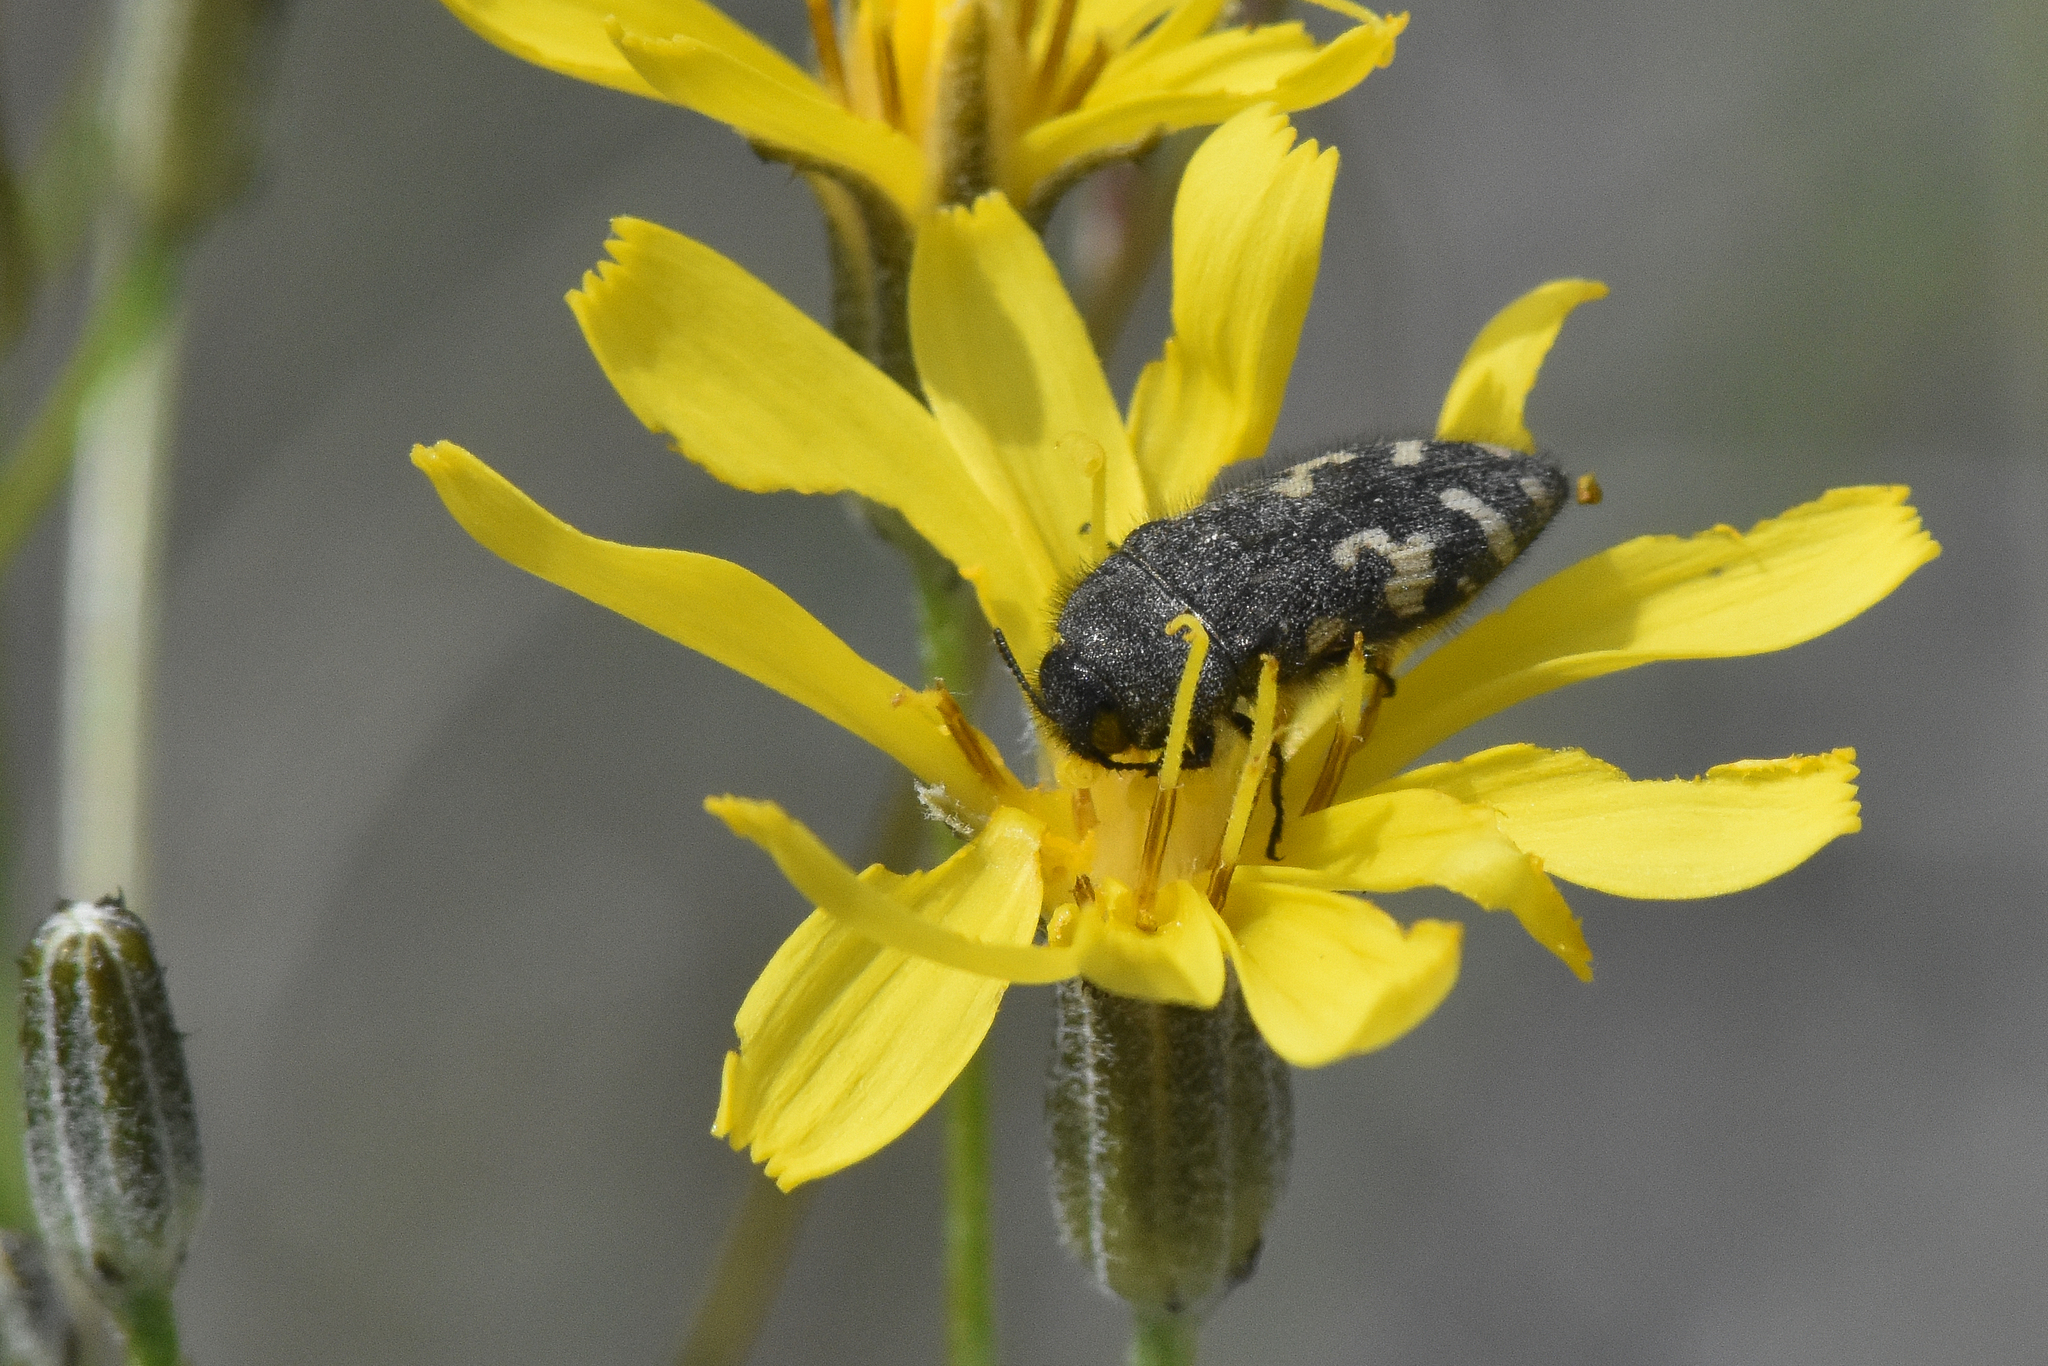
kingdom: Animalia
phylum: Arthropoda
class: Insecta
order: Coleoptera
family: Buprestidae
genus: Acmaeodera
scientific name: Acmaeodera idahoensis
